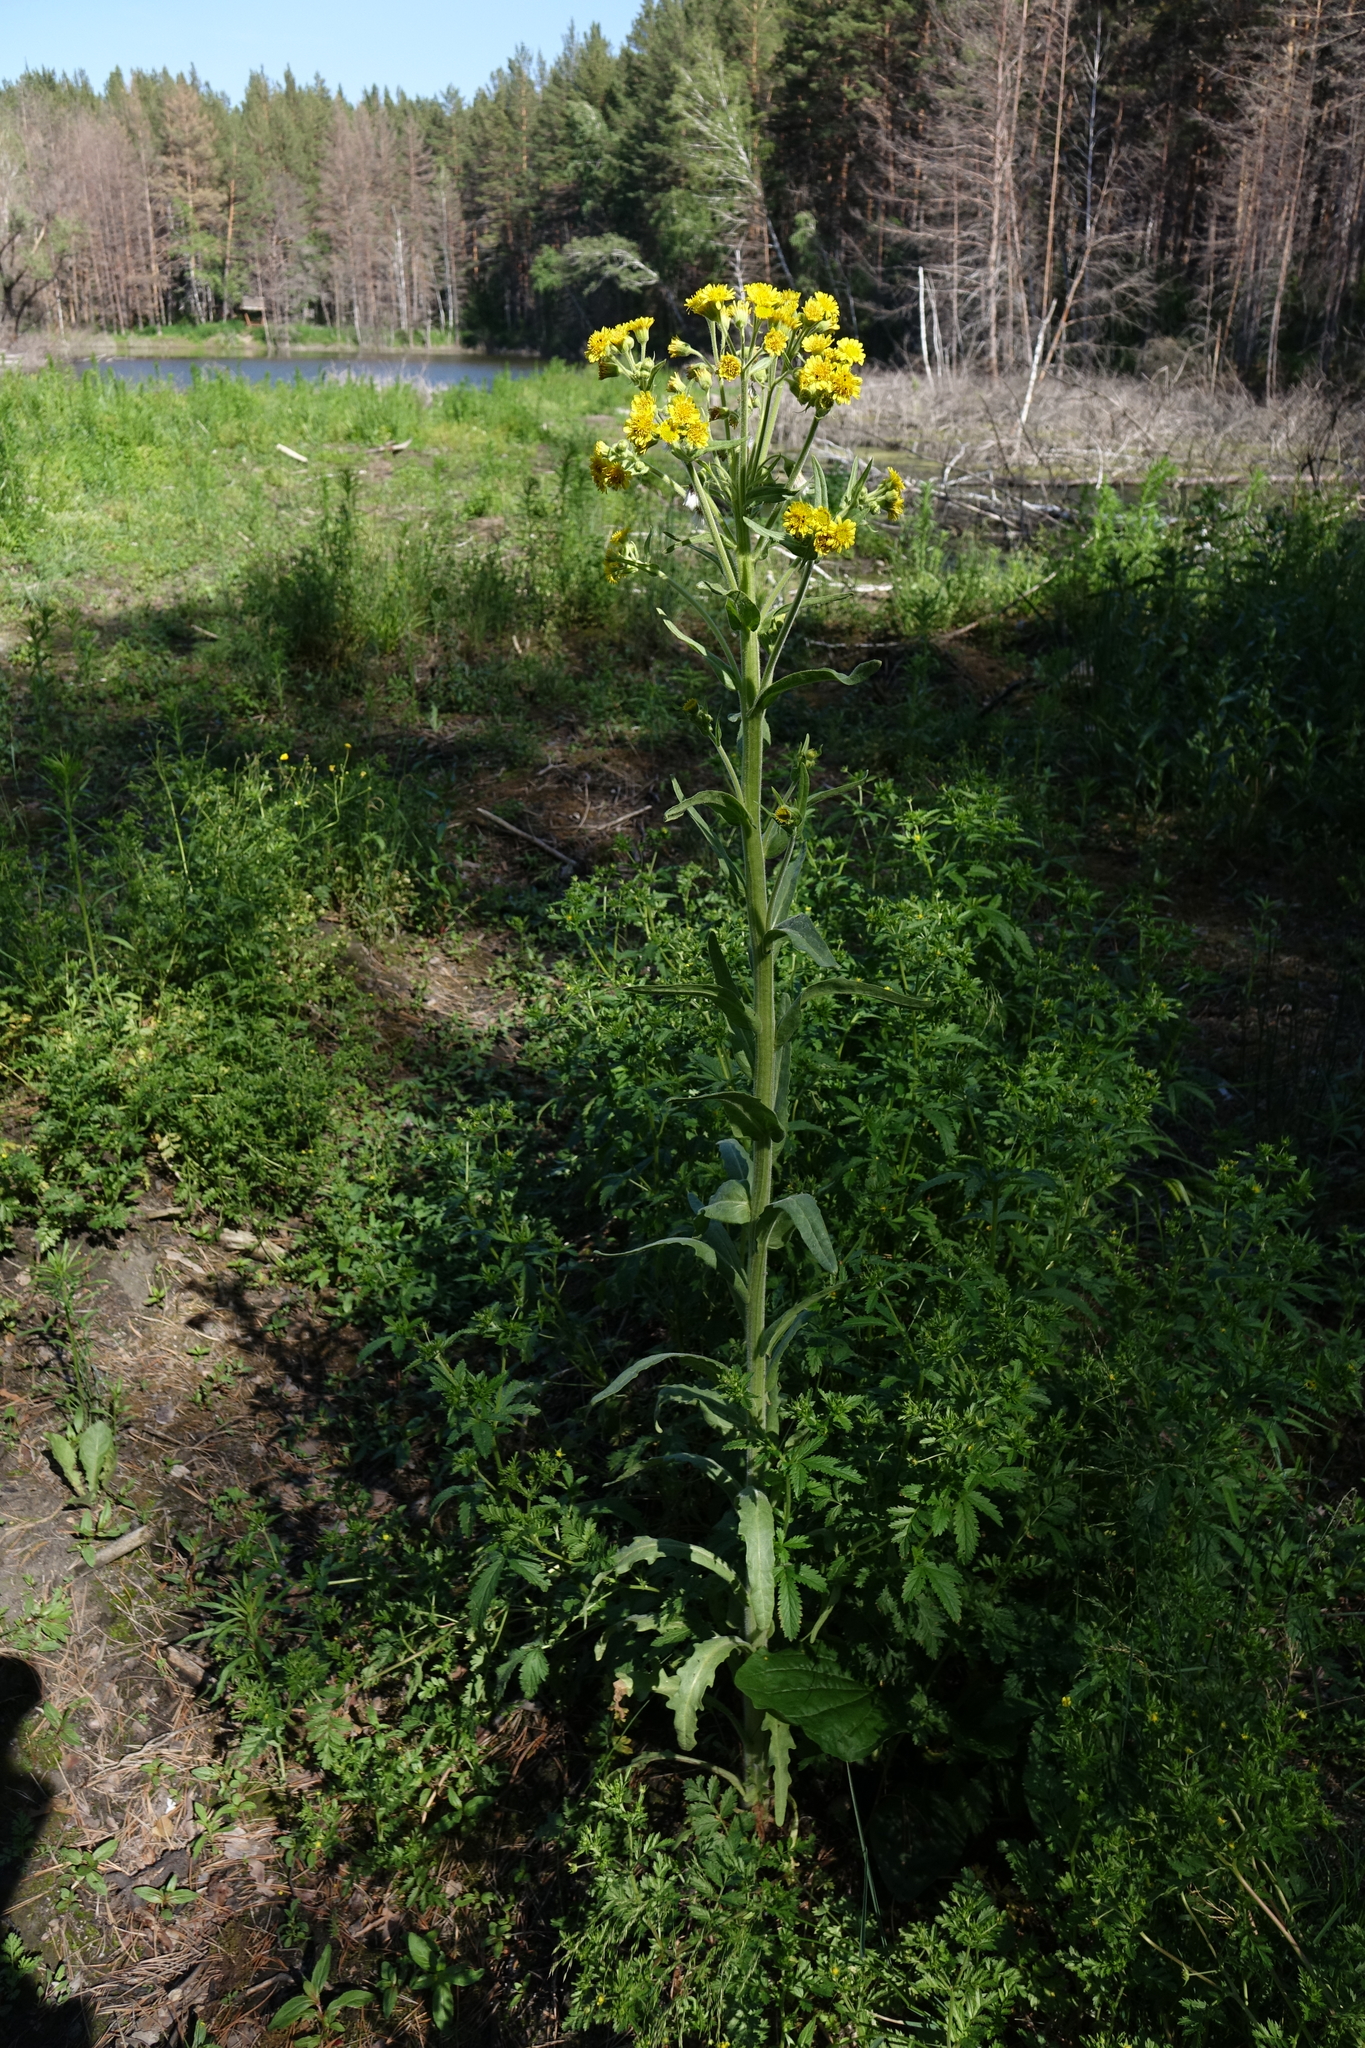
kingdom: Plantae
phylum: Tracheophyta
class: Magnoliopsida
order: Asterales
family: Asteraceae
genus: Tephroseris
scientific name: Tephroseris palustris
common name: Marsh fleawort
